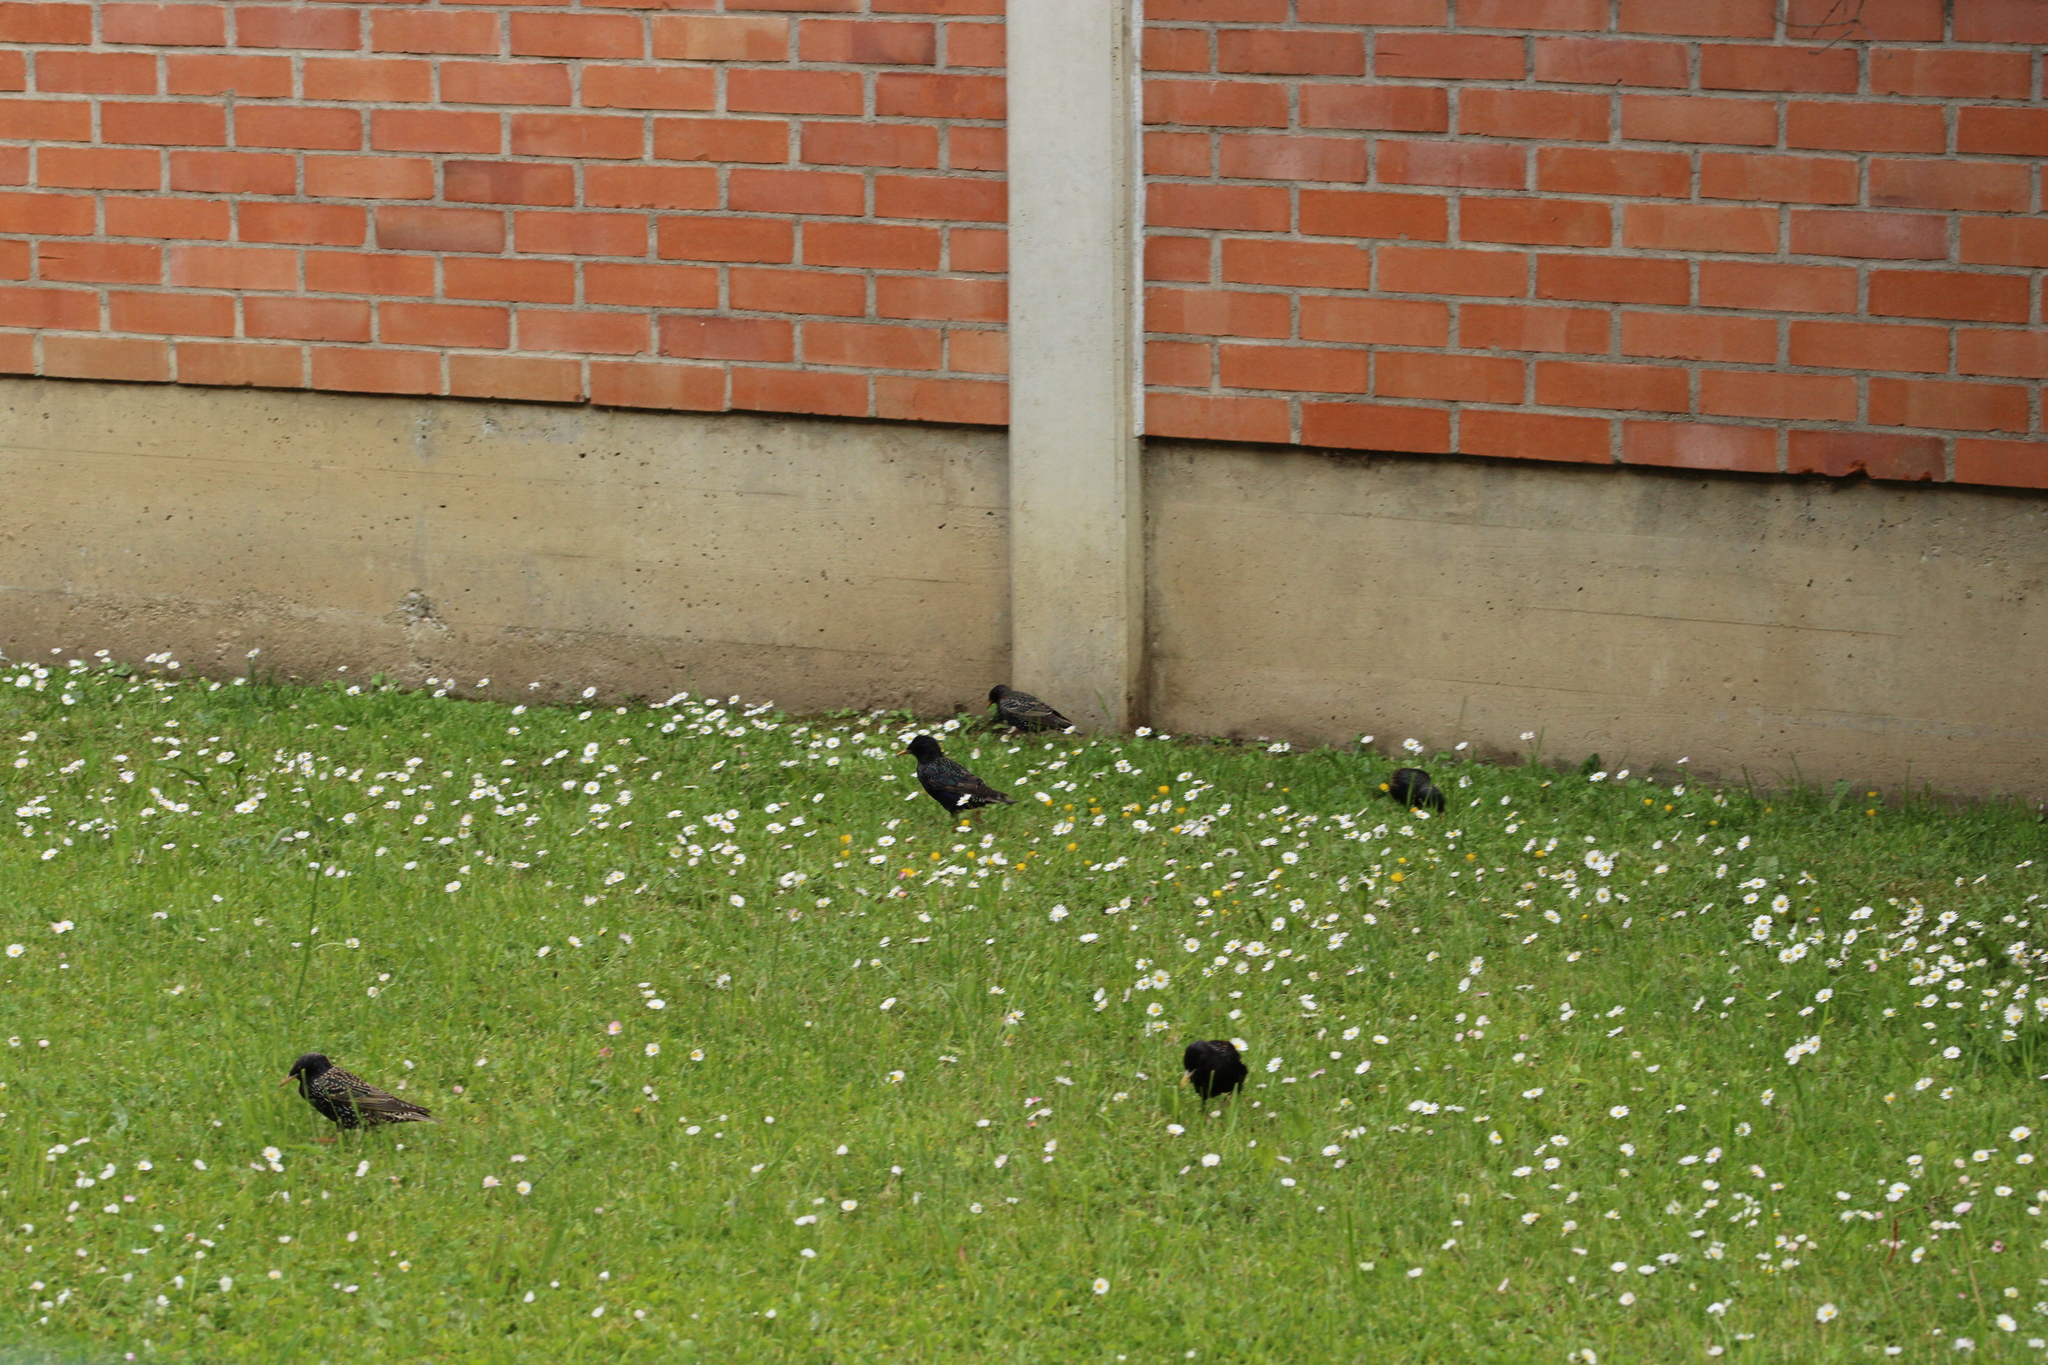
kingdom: Animalia
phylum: Chordata
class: Aves
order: Passeriformes
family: Sturnidae
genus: Sturnus
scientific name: Sturnus vulgaris
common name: Common starling
